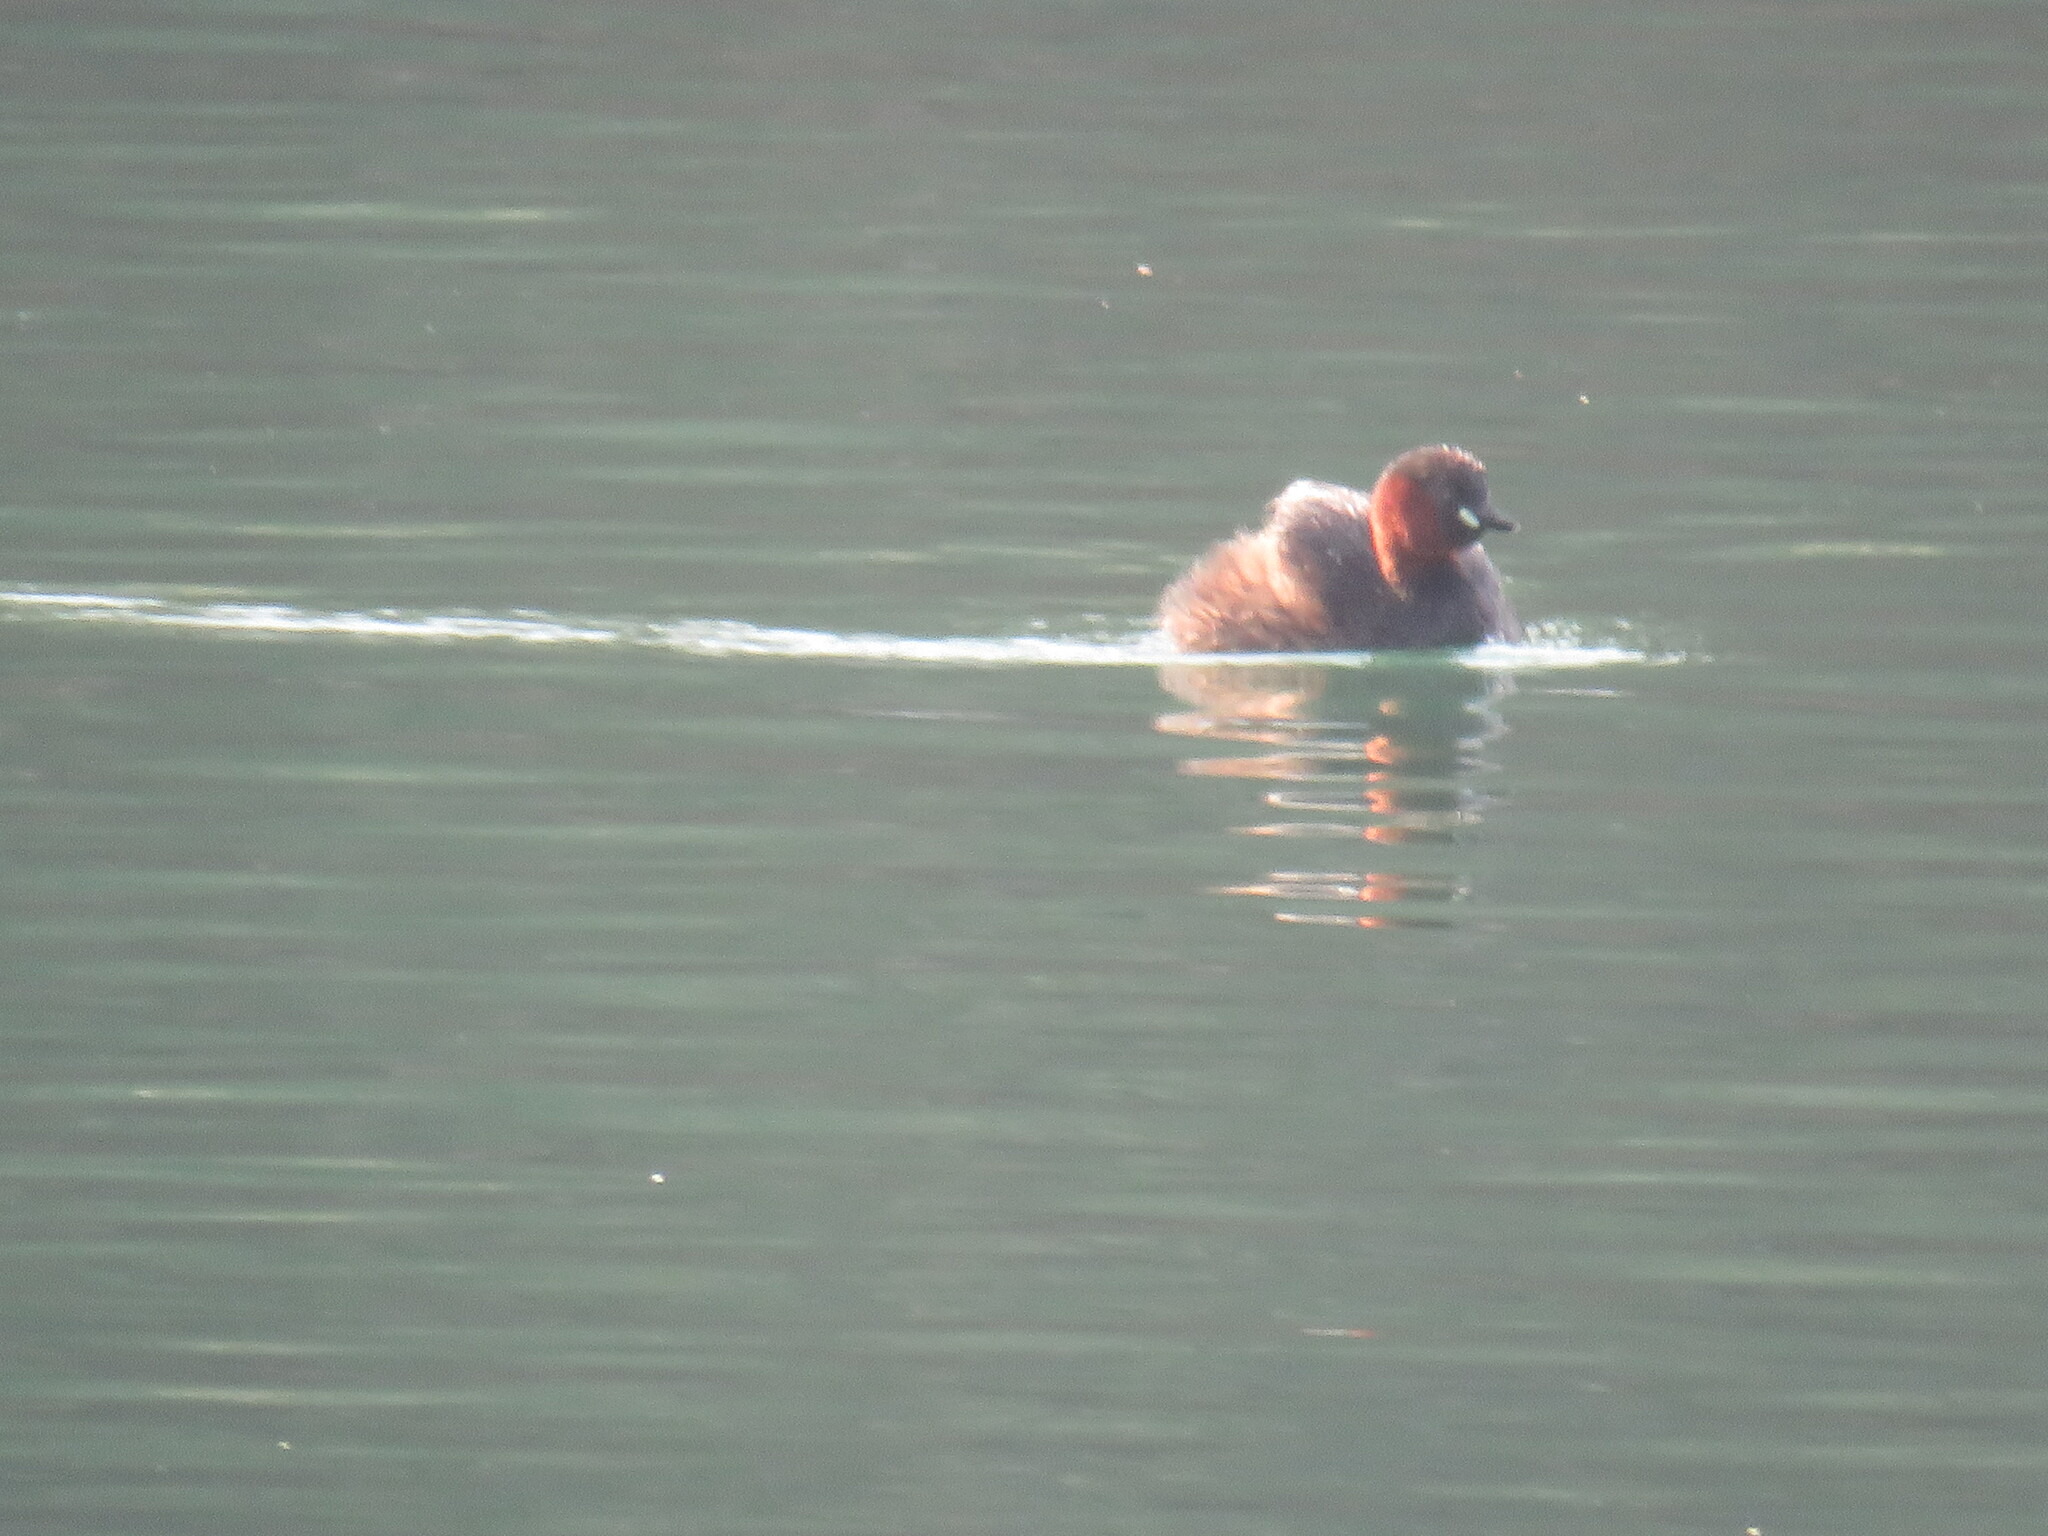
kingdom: Animalia
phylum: Chordata
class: Aves
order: Podicipediformes
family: Podicipedidae
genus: Tachybaptus
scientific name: Tachybaptus ruficollis
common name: Little grebe
